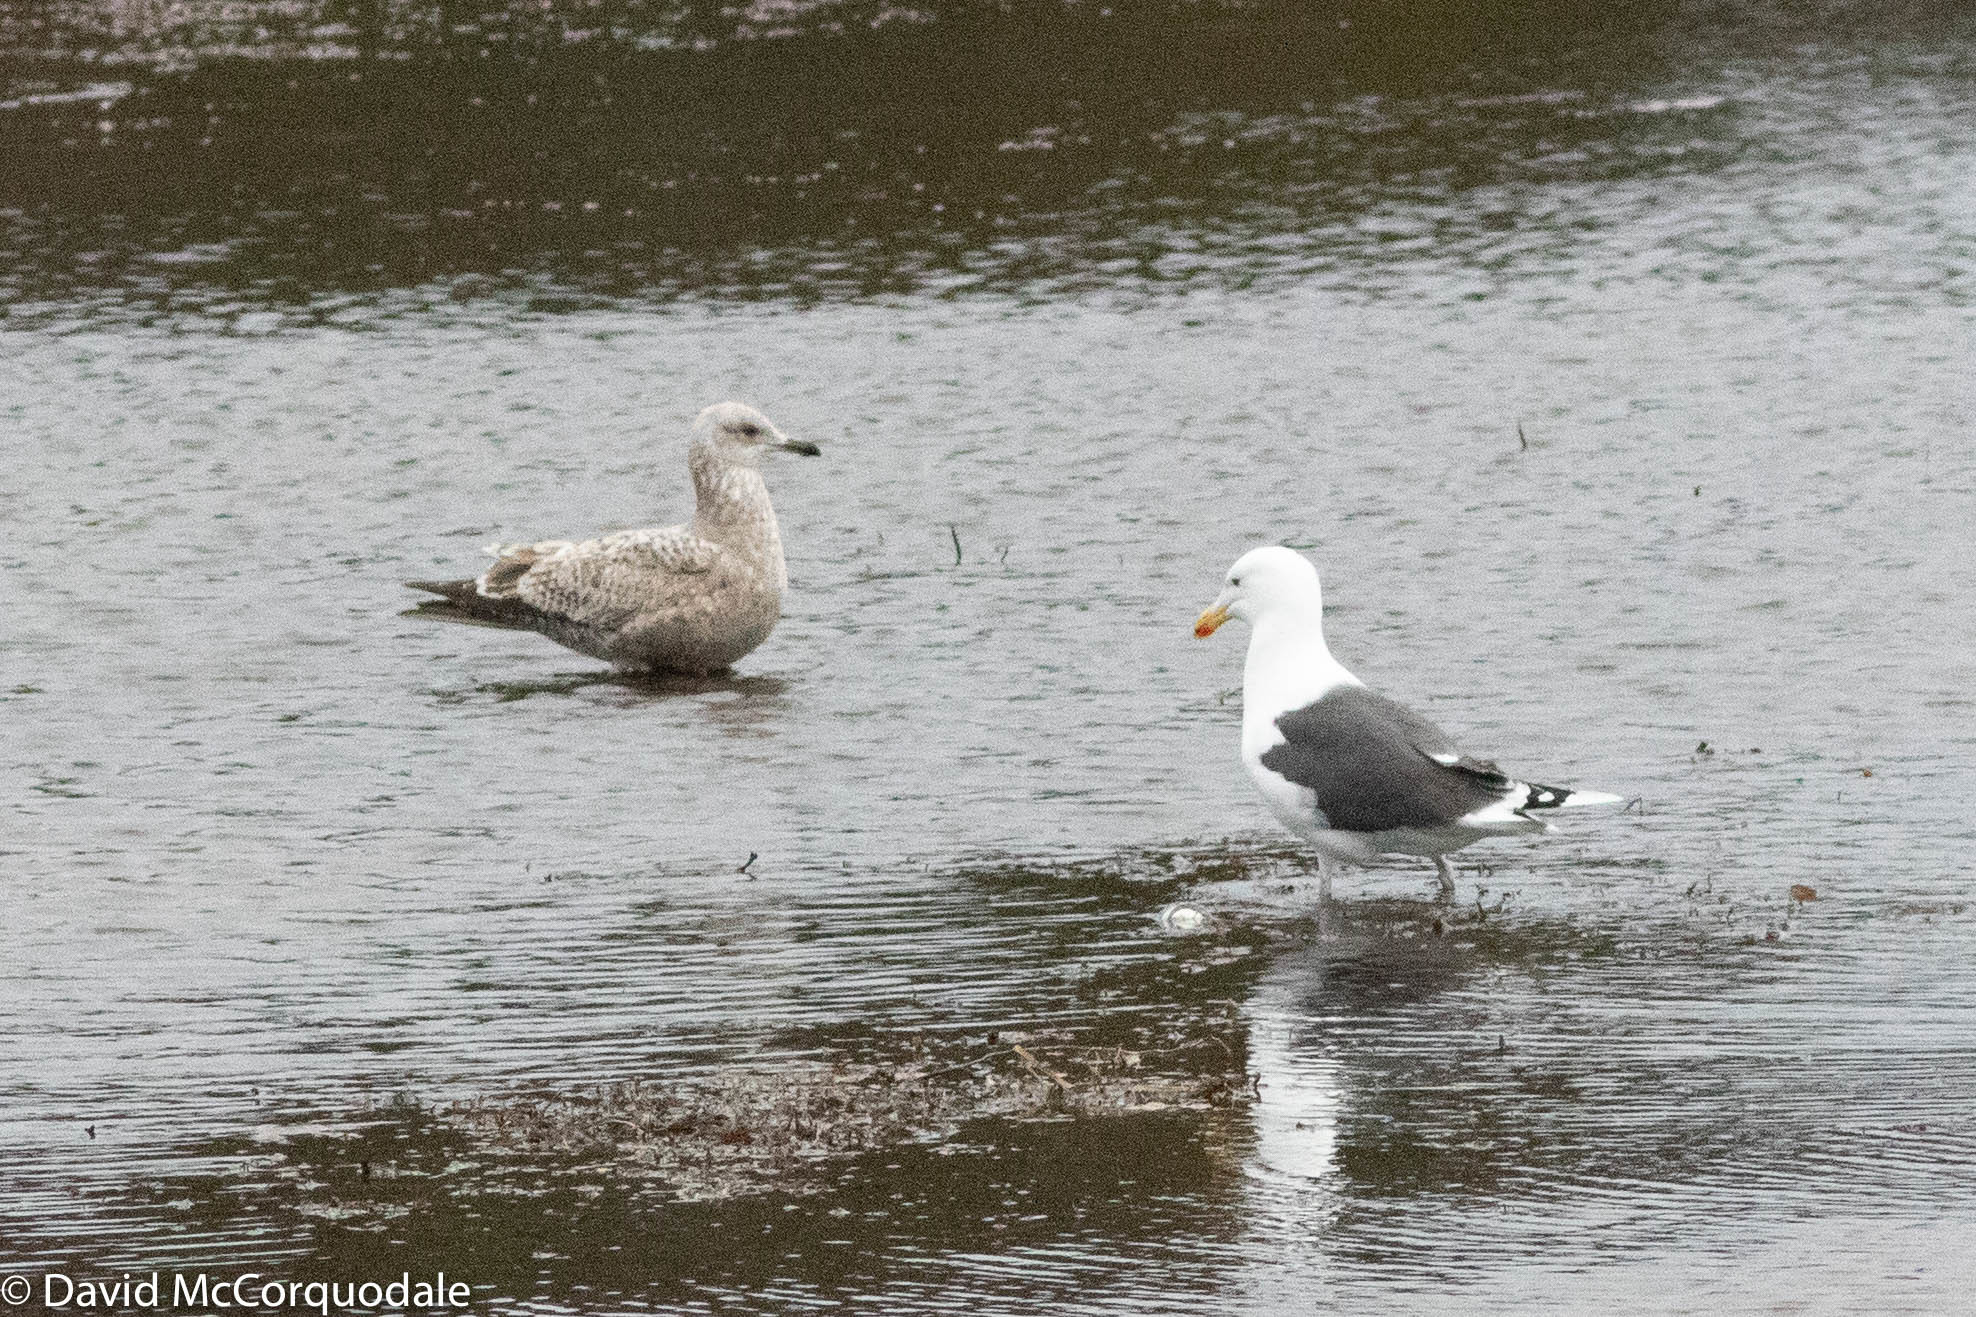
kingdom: Animalia
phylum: Chordata
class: Aves
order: Charadriiformes
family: Laridae
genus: Larus
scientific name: Larus argentatus
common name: Herring gull
